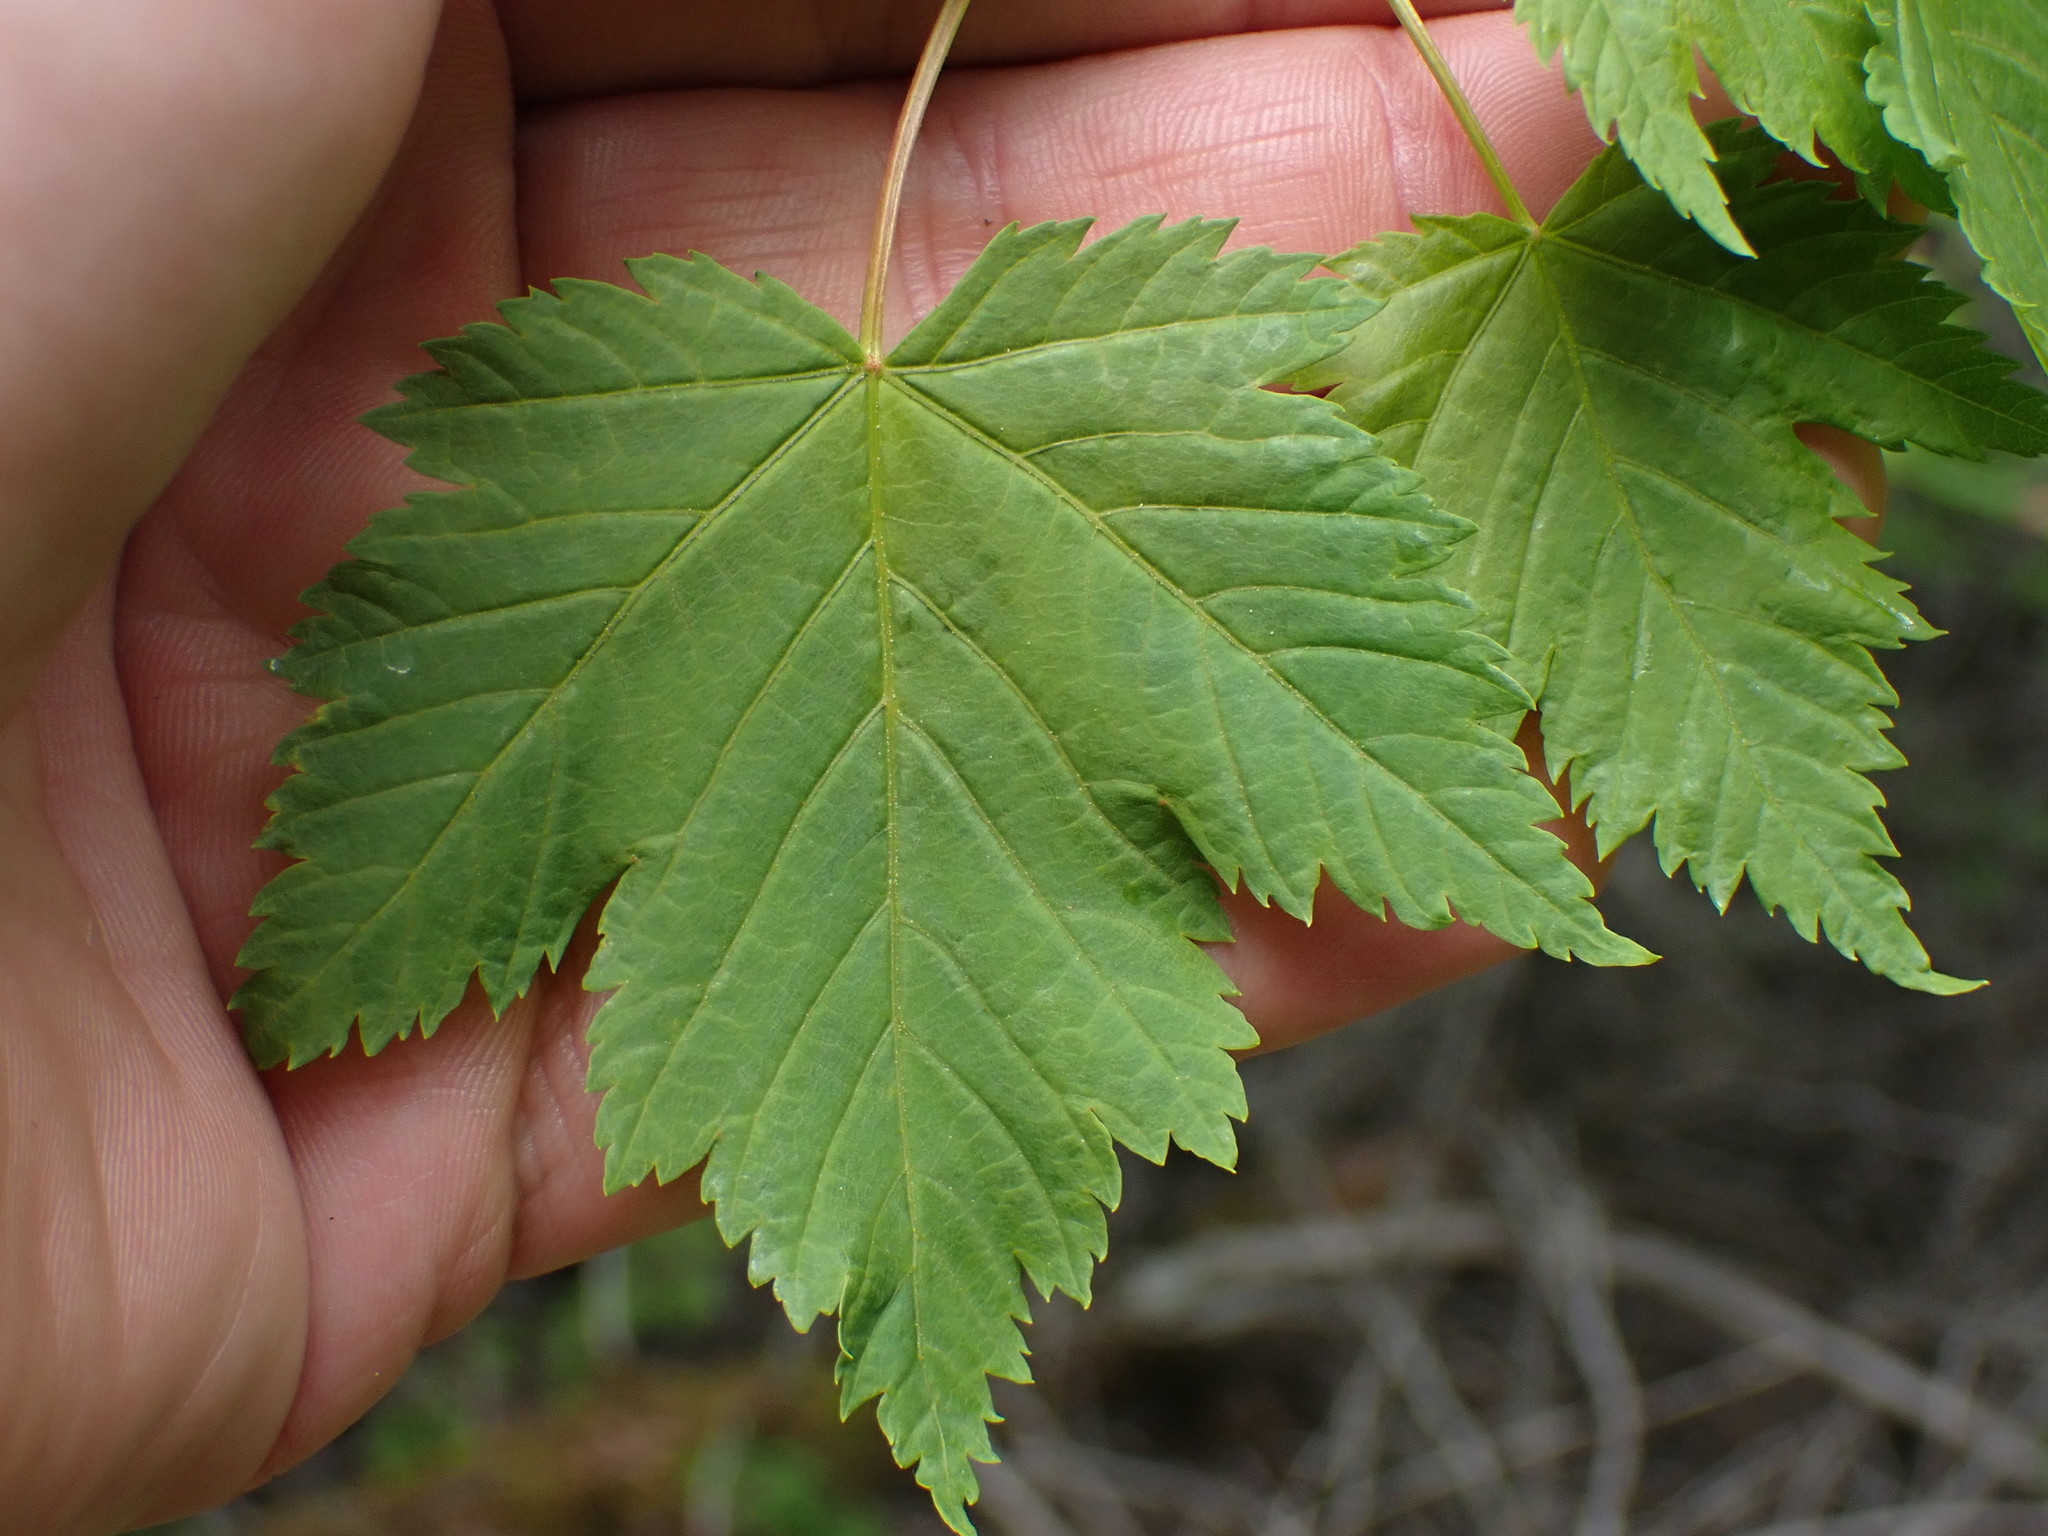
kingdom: Plantae
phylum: Tracheophyta
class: Magnoliopsida
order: Sapindales
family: Sapindaceae
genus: Acer
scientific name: Acer glabrum
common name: Rocky mountain maple
